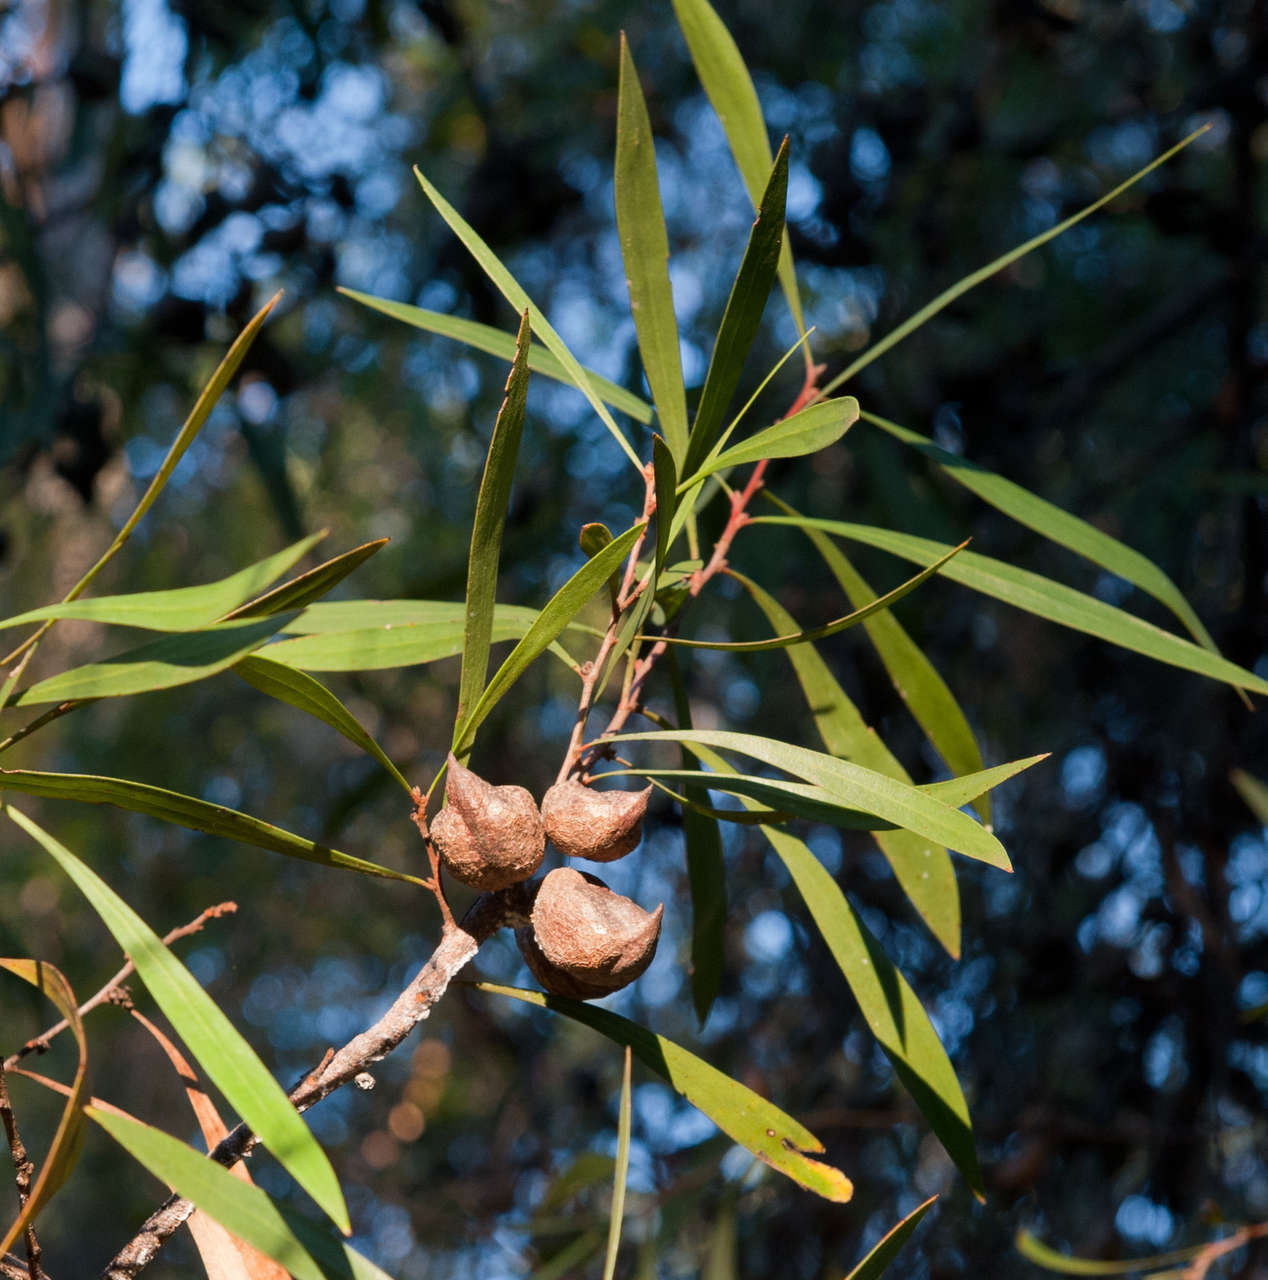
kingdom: Plantae
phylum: Tracheophyta
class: Magnoliopsida
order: Proteales
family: Proteaceae
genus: Hakea
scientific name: Hakea eriantha
